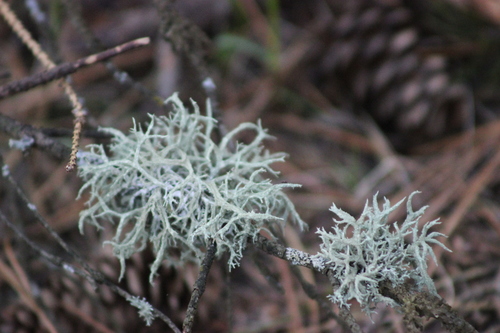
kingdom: Fungi
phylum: Ascomycota
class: Lecanoromycetes
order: Lecanorales
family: Parmeliaceae
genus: Evernia
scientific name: Evernia mesomorpha
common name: Boreal oak moss lichen
